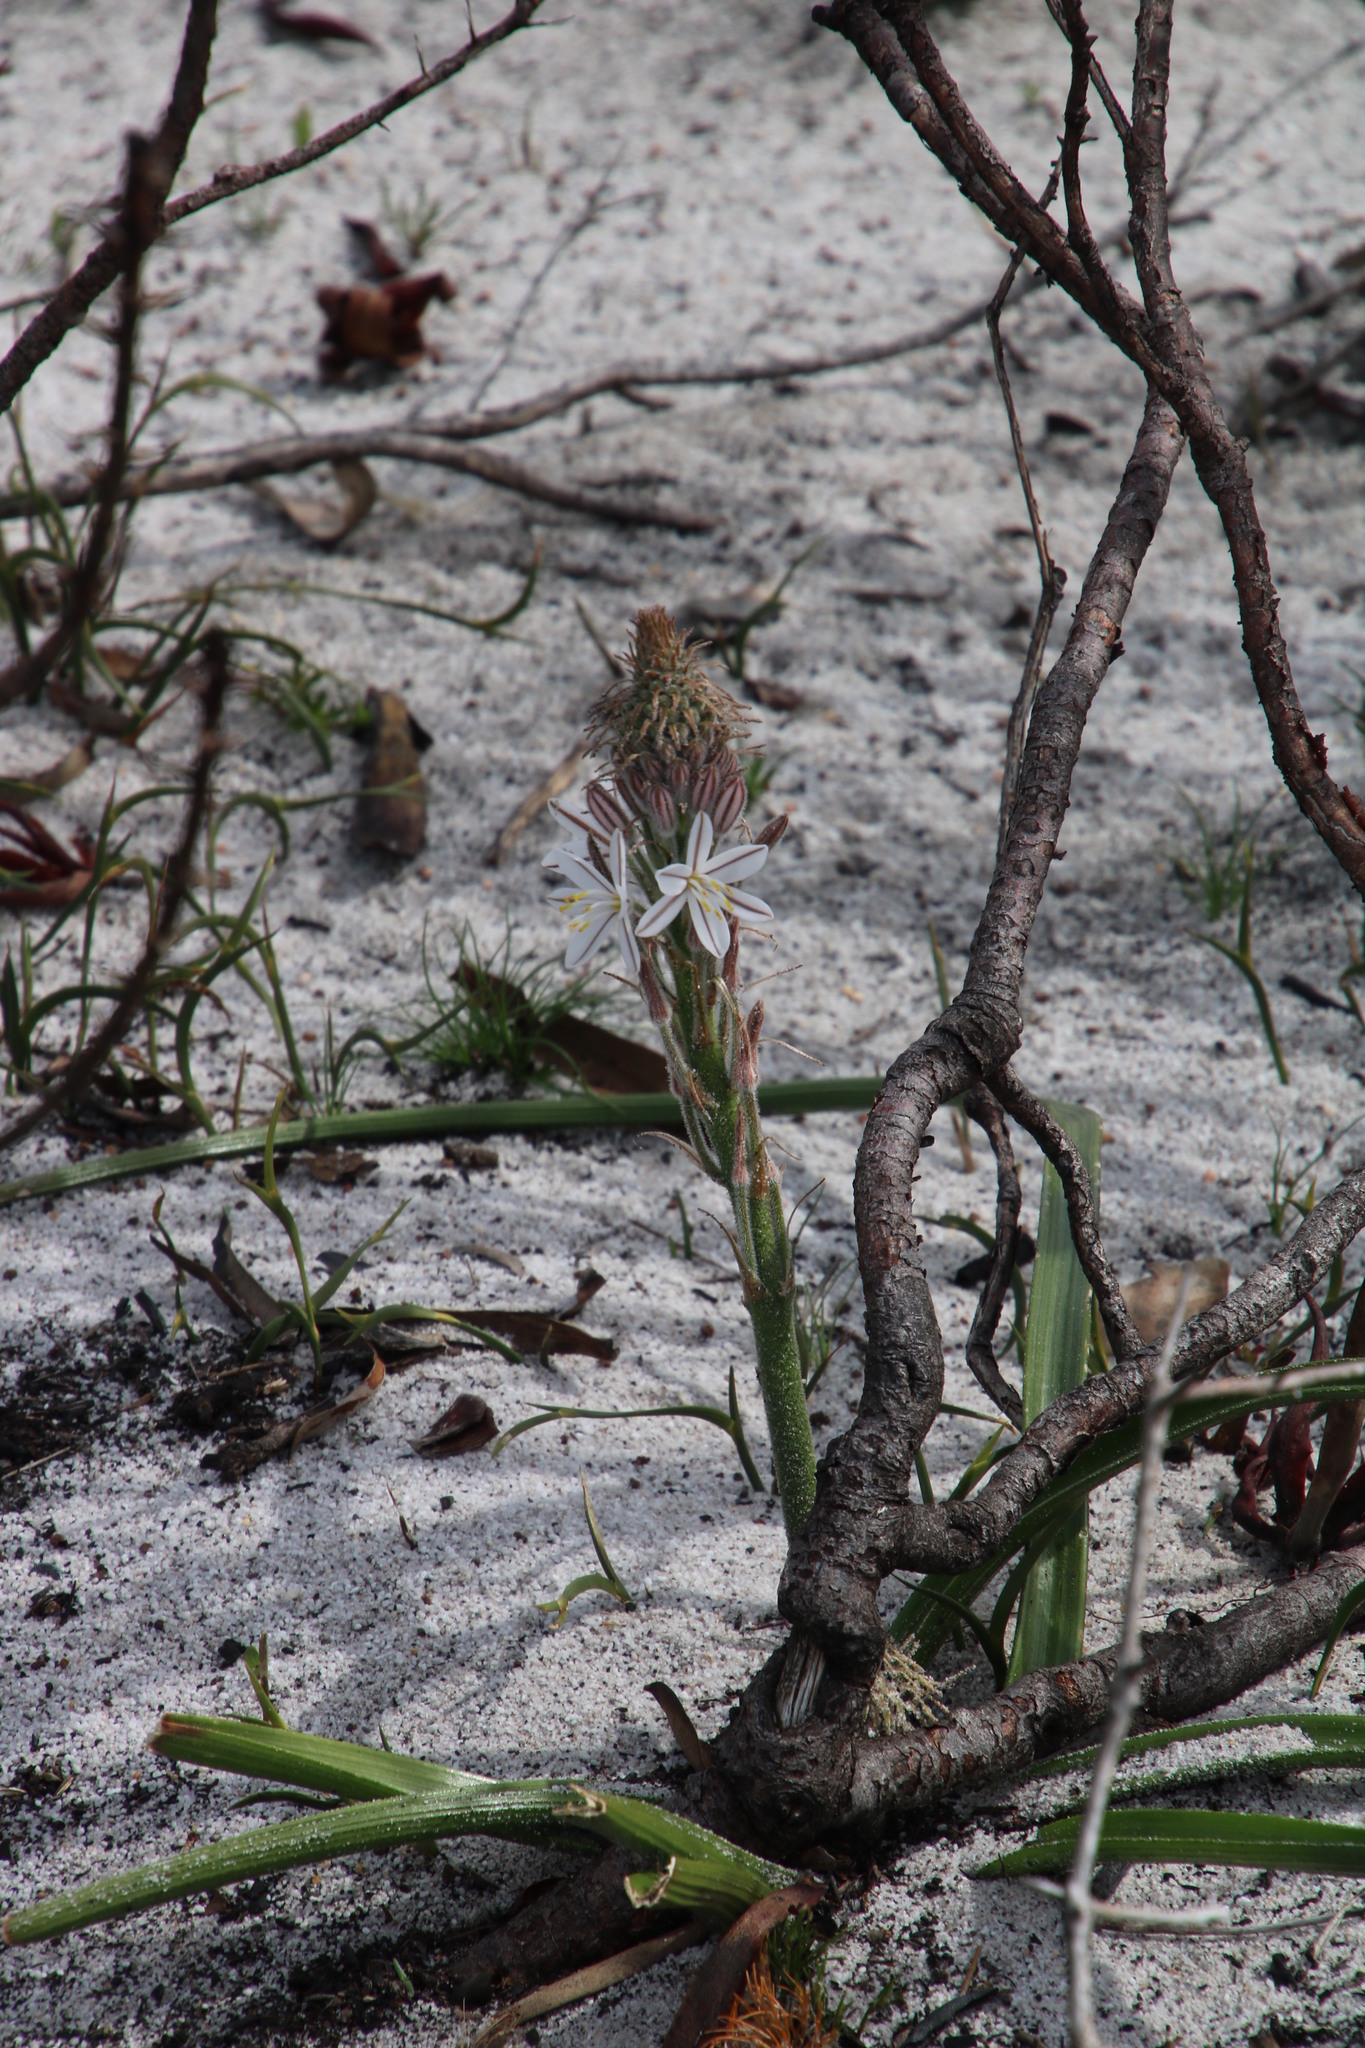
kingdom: Plantae
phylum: Tracheophyta
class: Liliopsida
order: Asparagales
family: Asphodelaceae
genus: Trachyandra
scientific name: Trachyandra hirsutiflora
